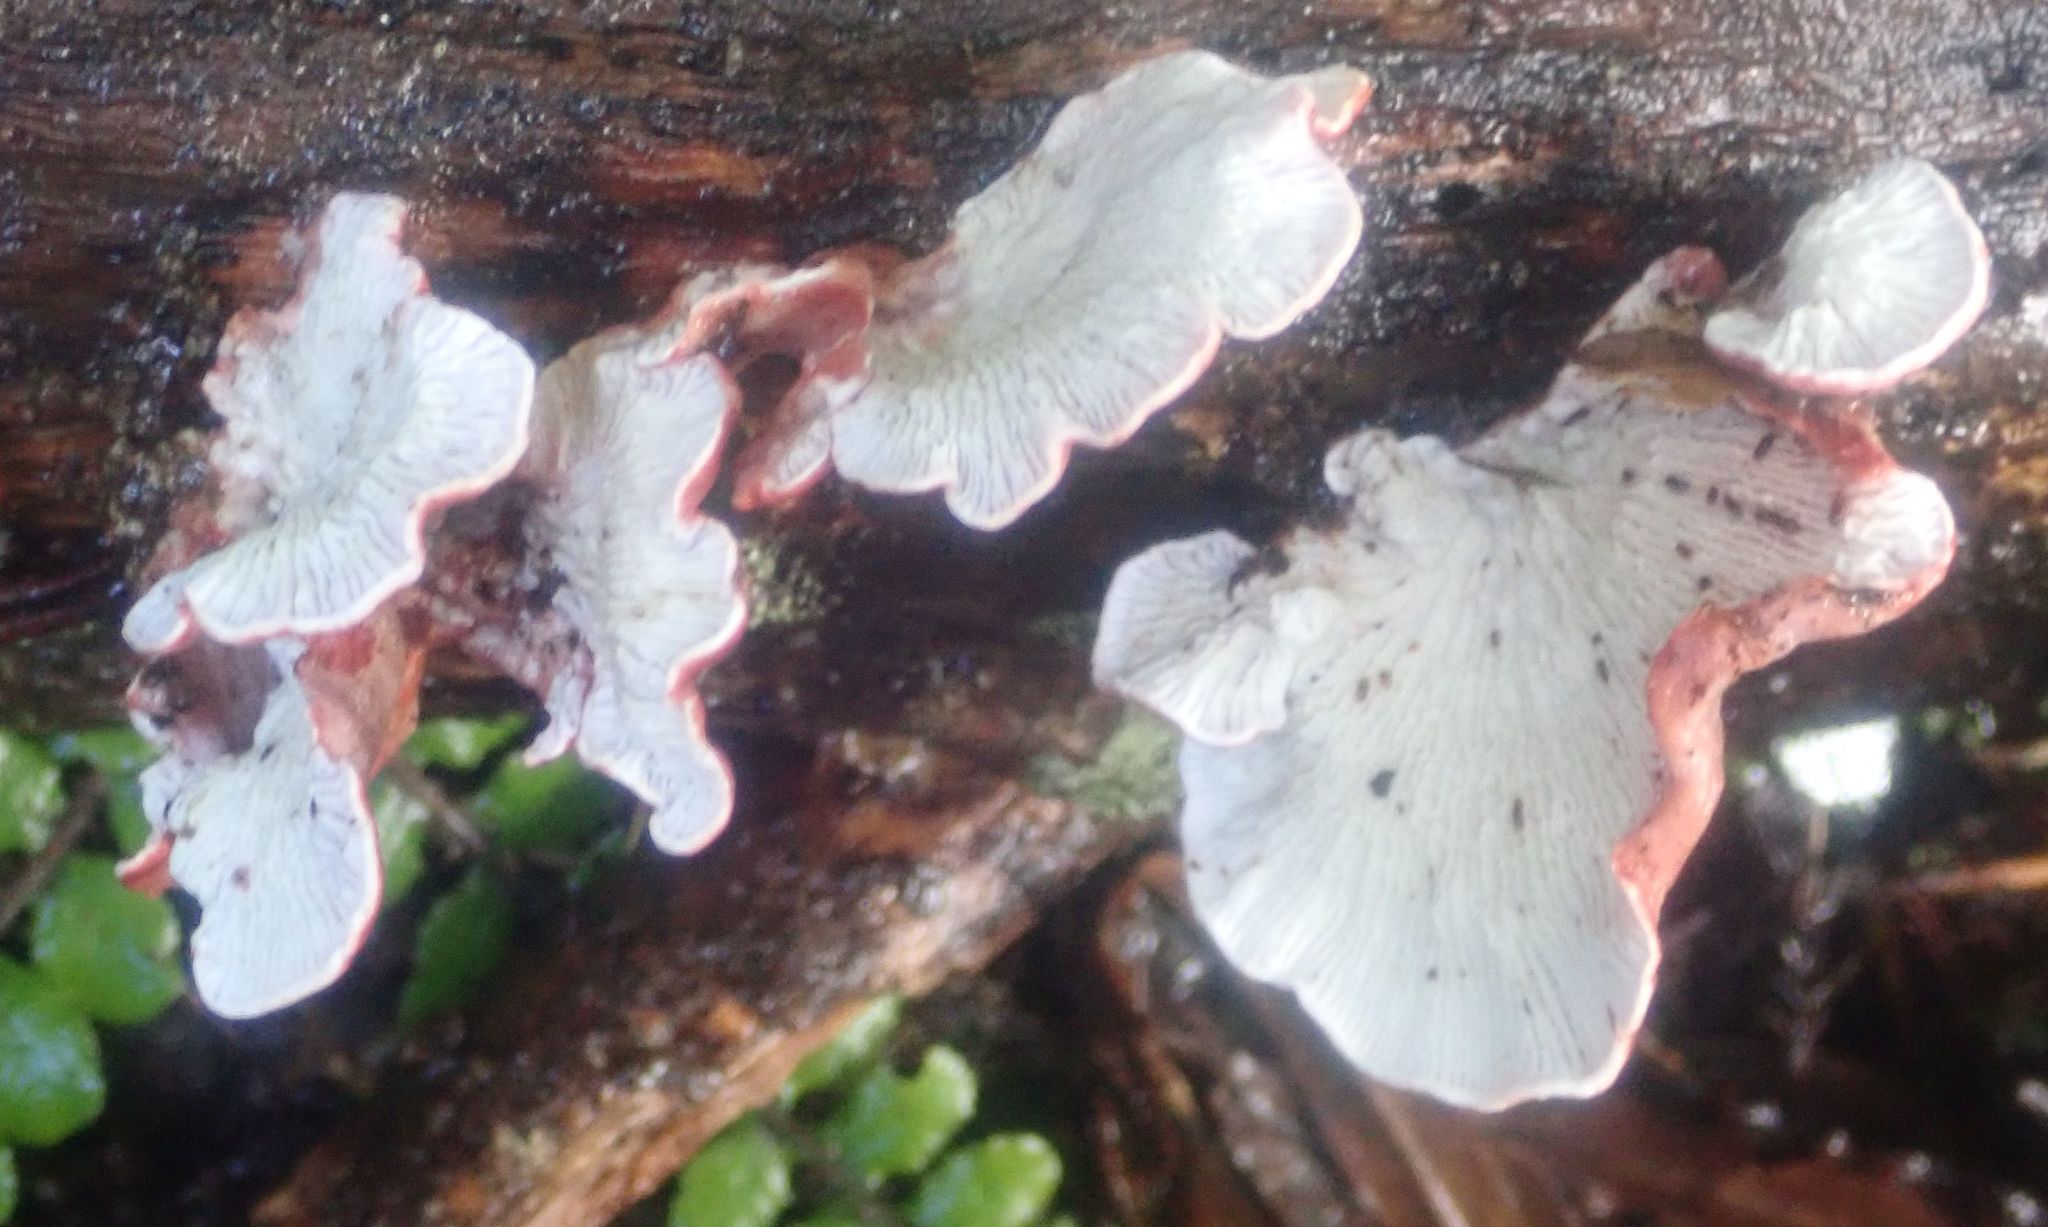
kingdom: Fungi
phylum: Basidiomycota
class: Agaricomycetes
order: Polyporales
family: Meruliaceae
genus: Phlebia
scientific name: Phlebia
